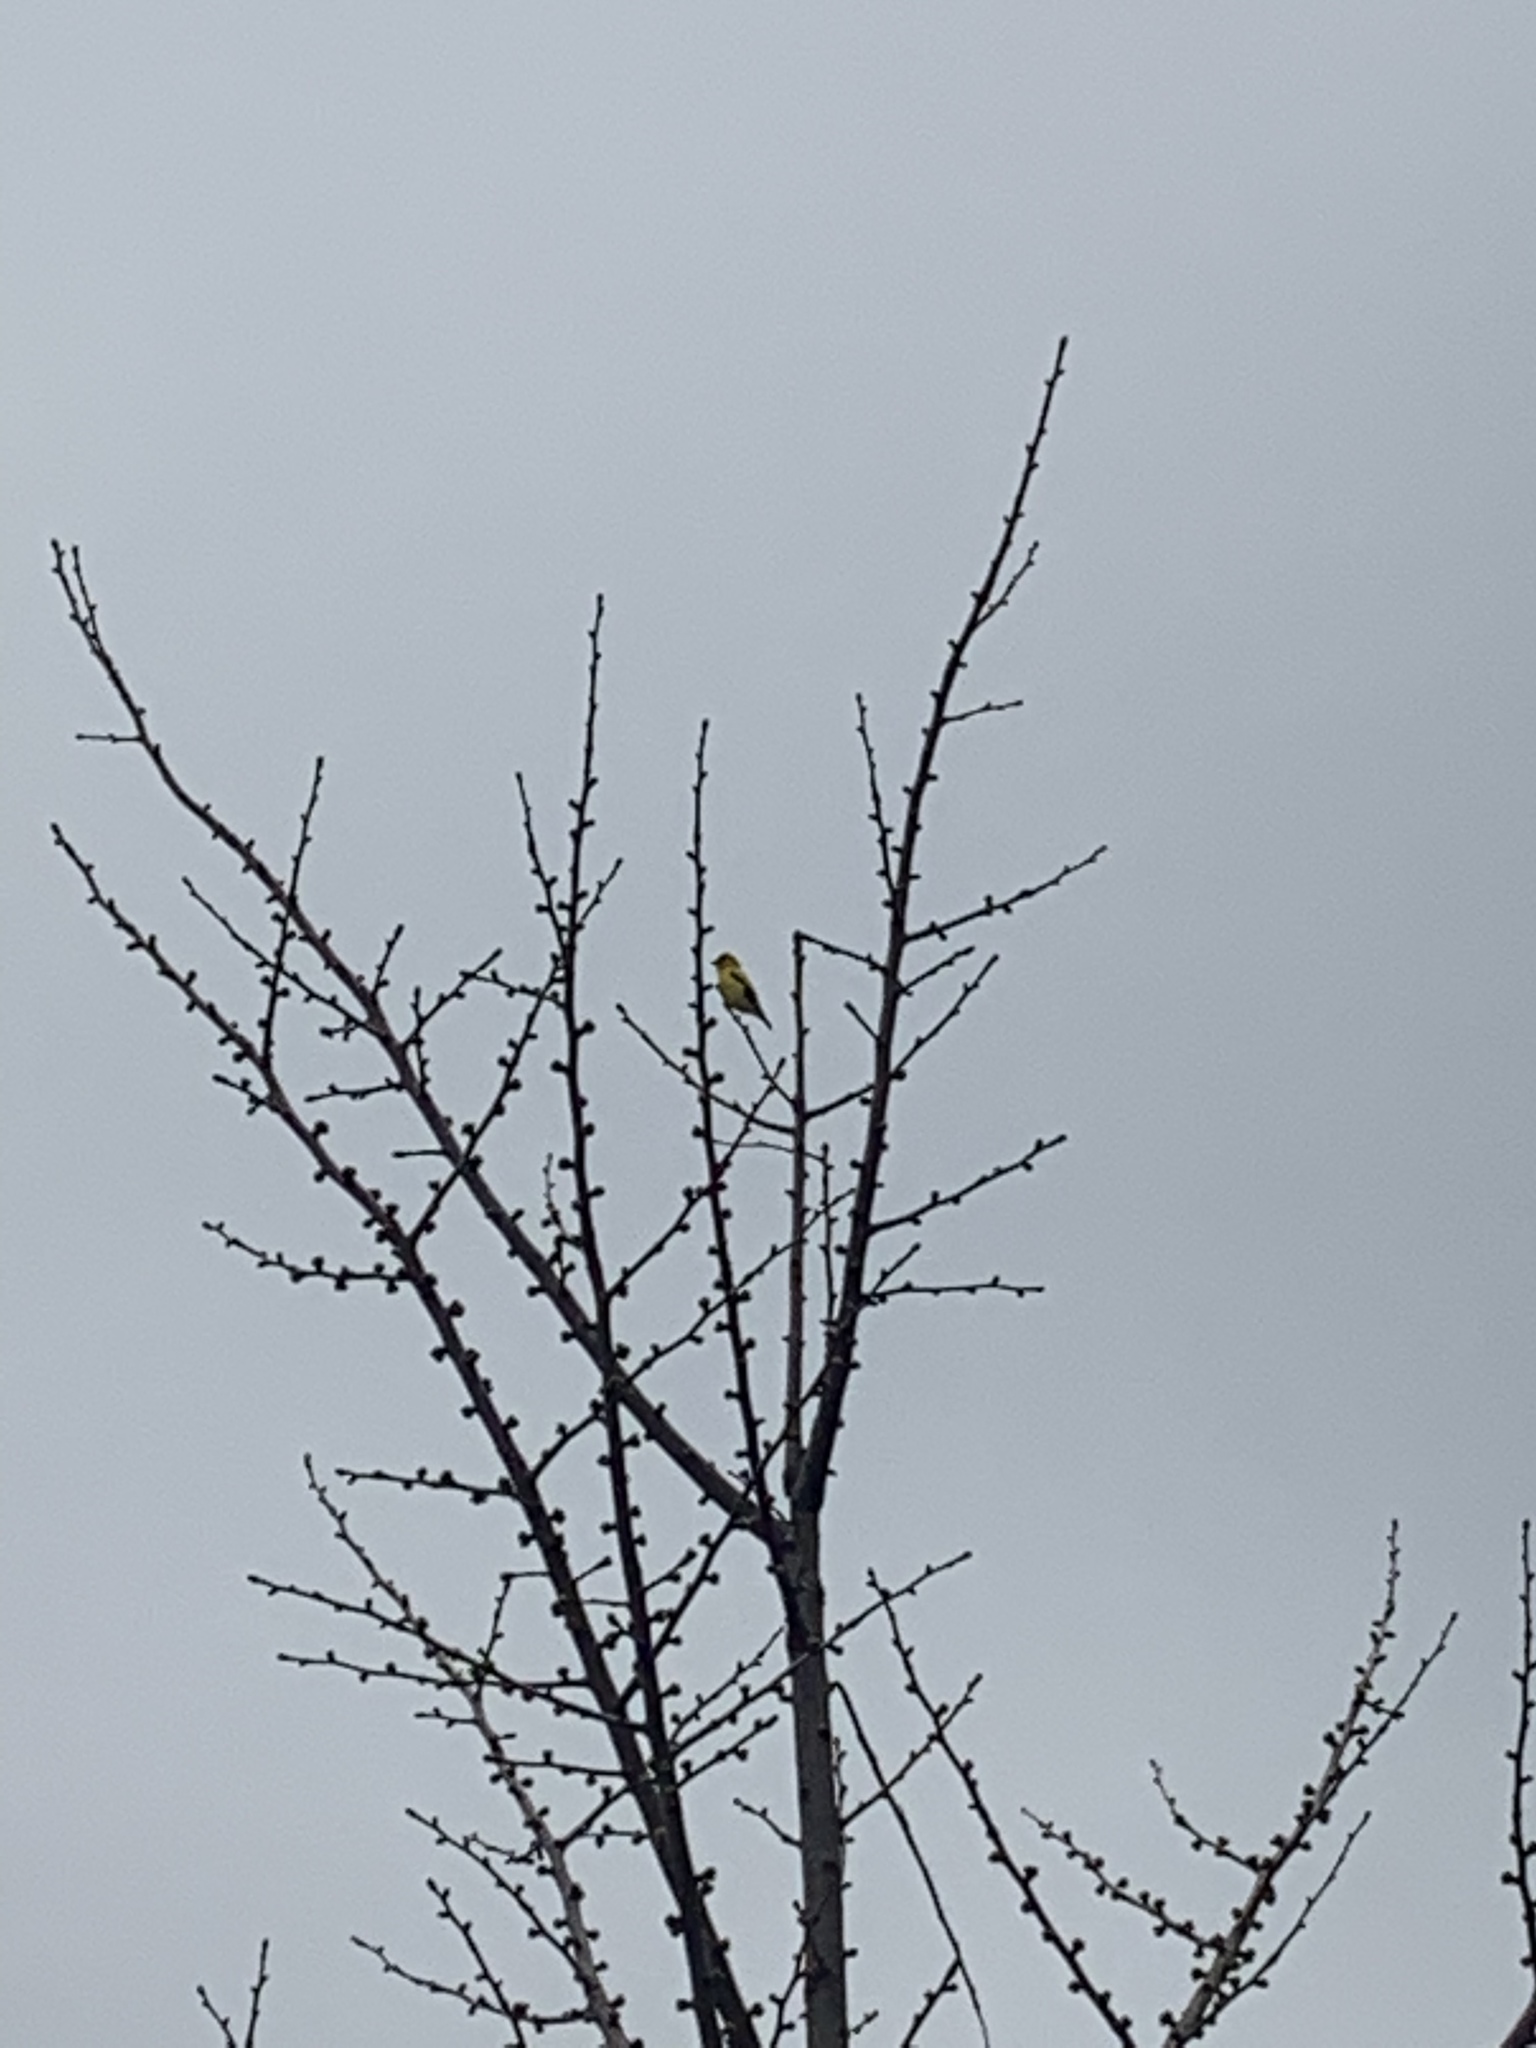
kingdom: Animalia
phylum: Chordata
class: Aves
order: Passeriformes
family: Fringillidae
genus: Spinus
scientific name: Spinus tristis
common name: American goldfinch
